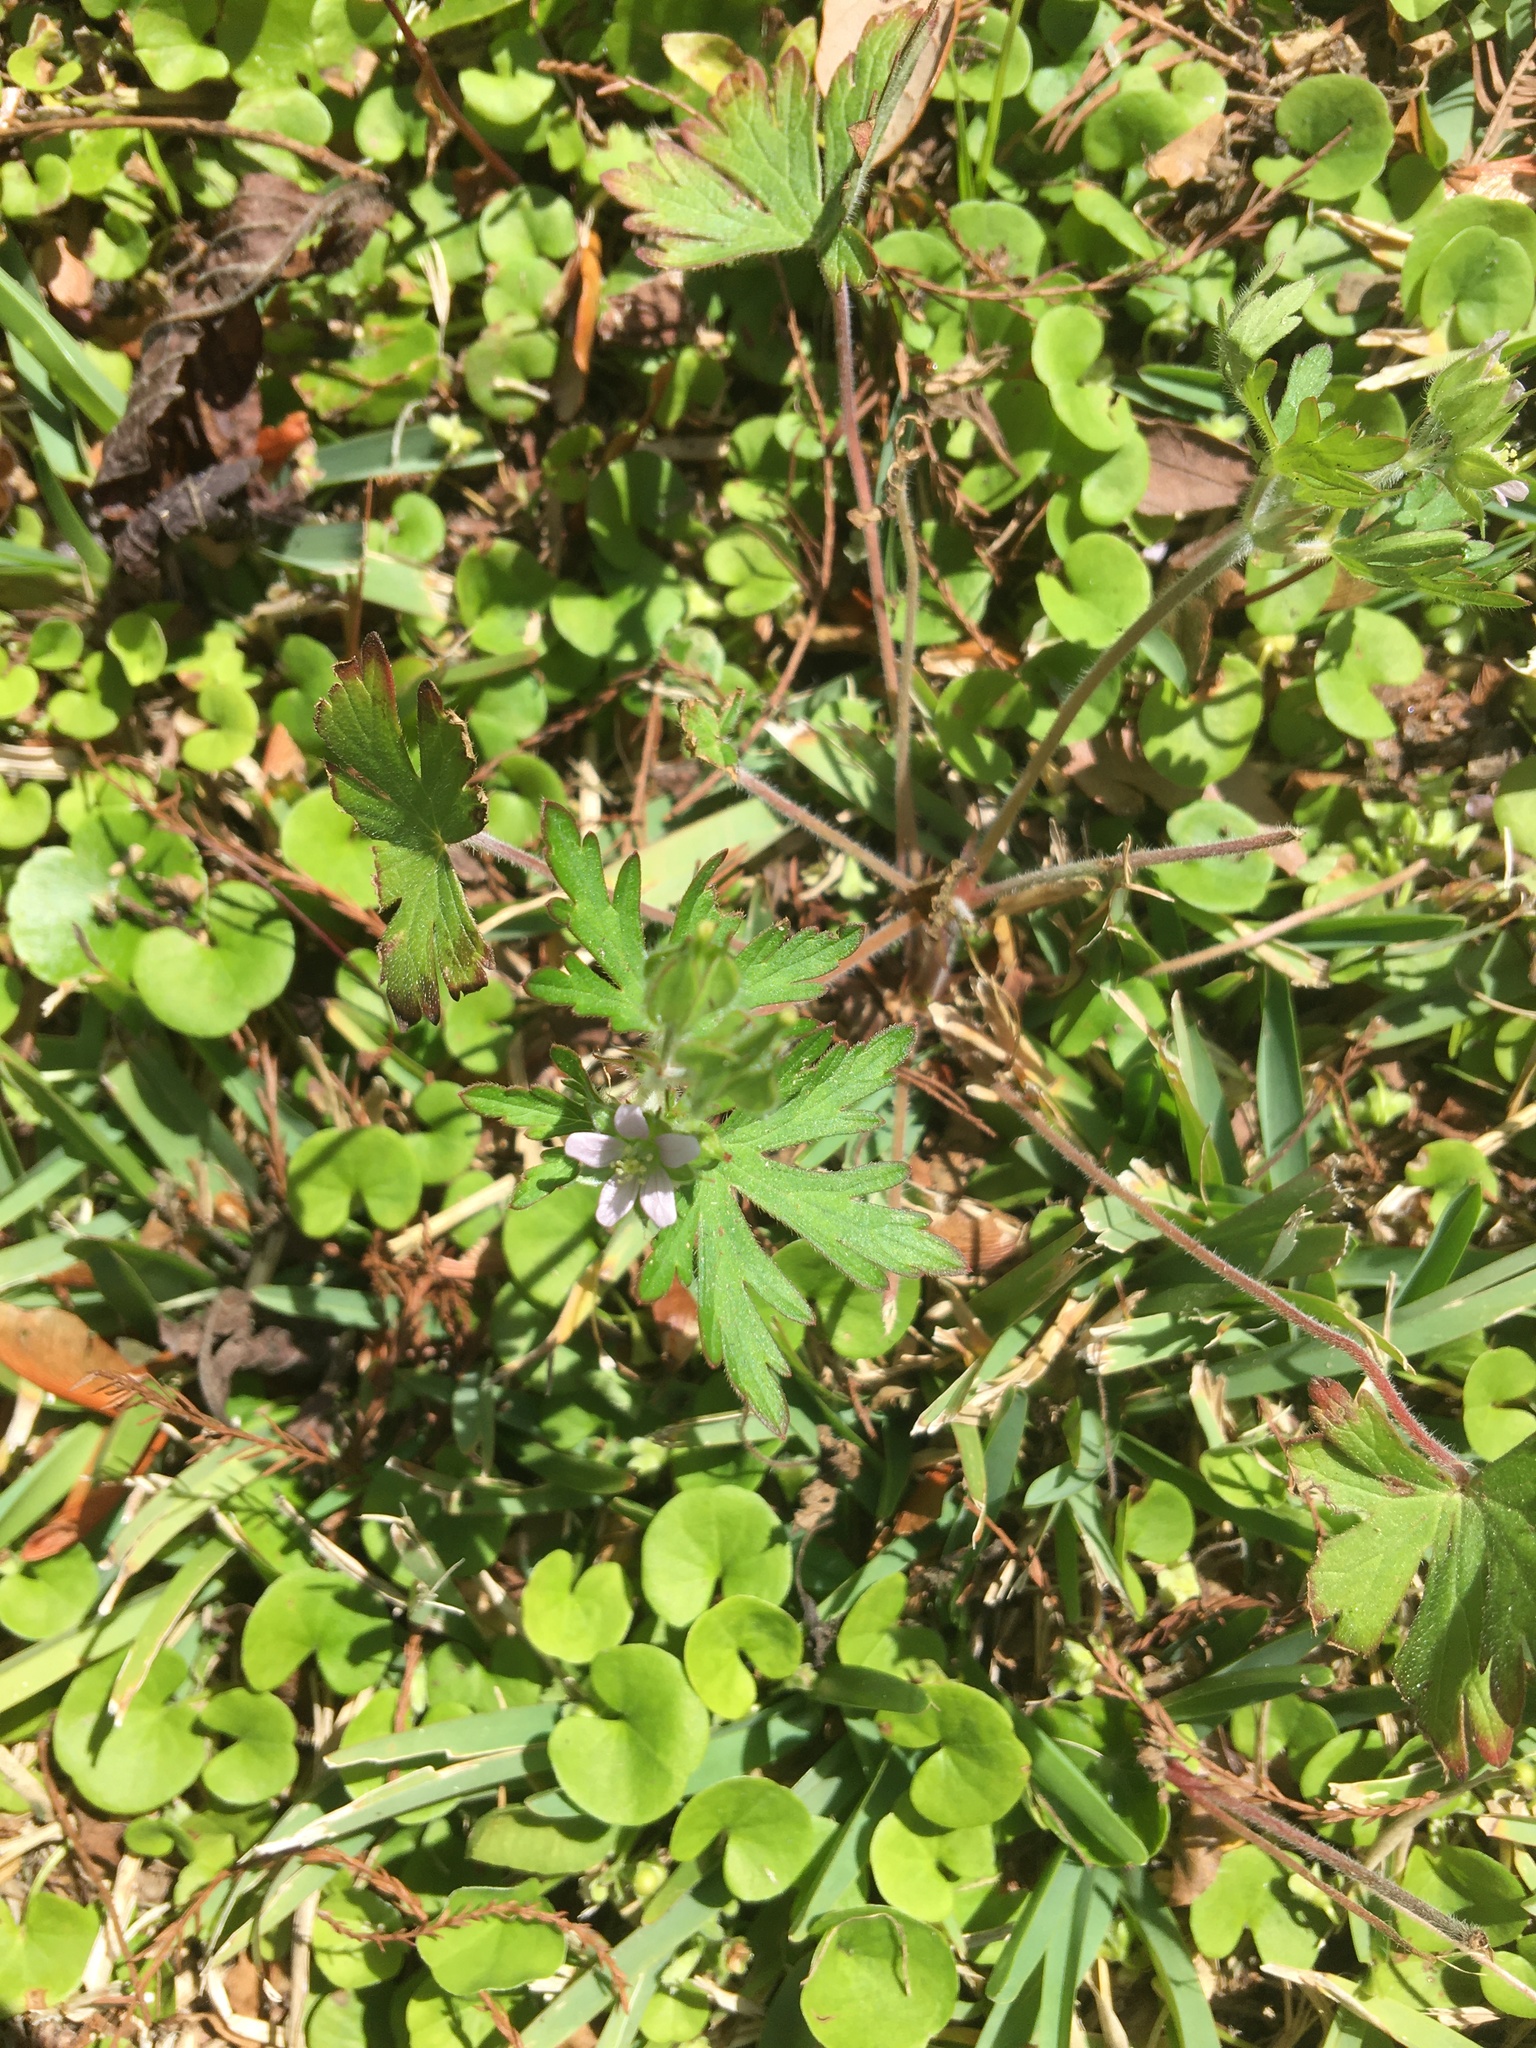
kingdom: Plantae
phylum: Tracheophyta
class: Magnoliopsida
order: Geraniales
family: Geraniaceae
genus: Geranium
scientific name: Geranium carolinianum
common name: Carolina crane's-bill
